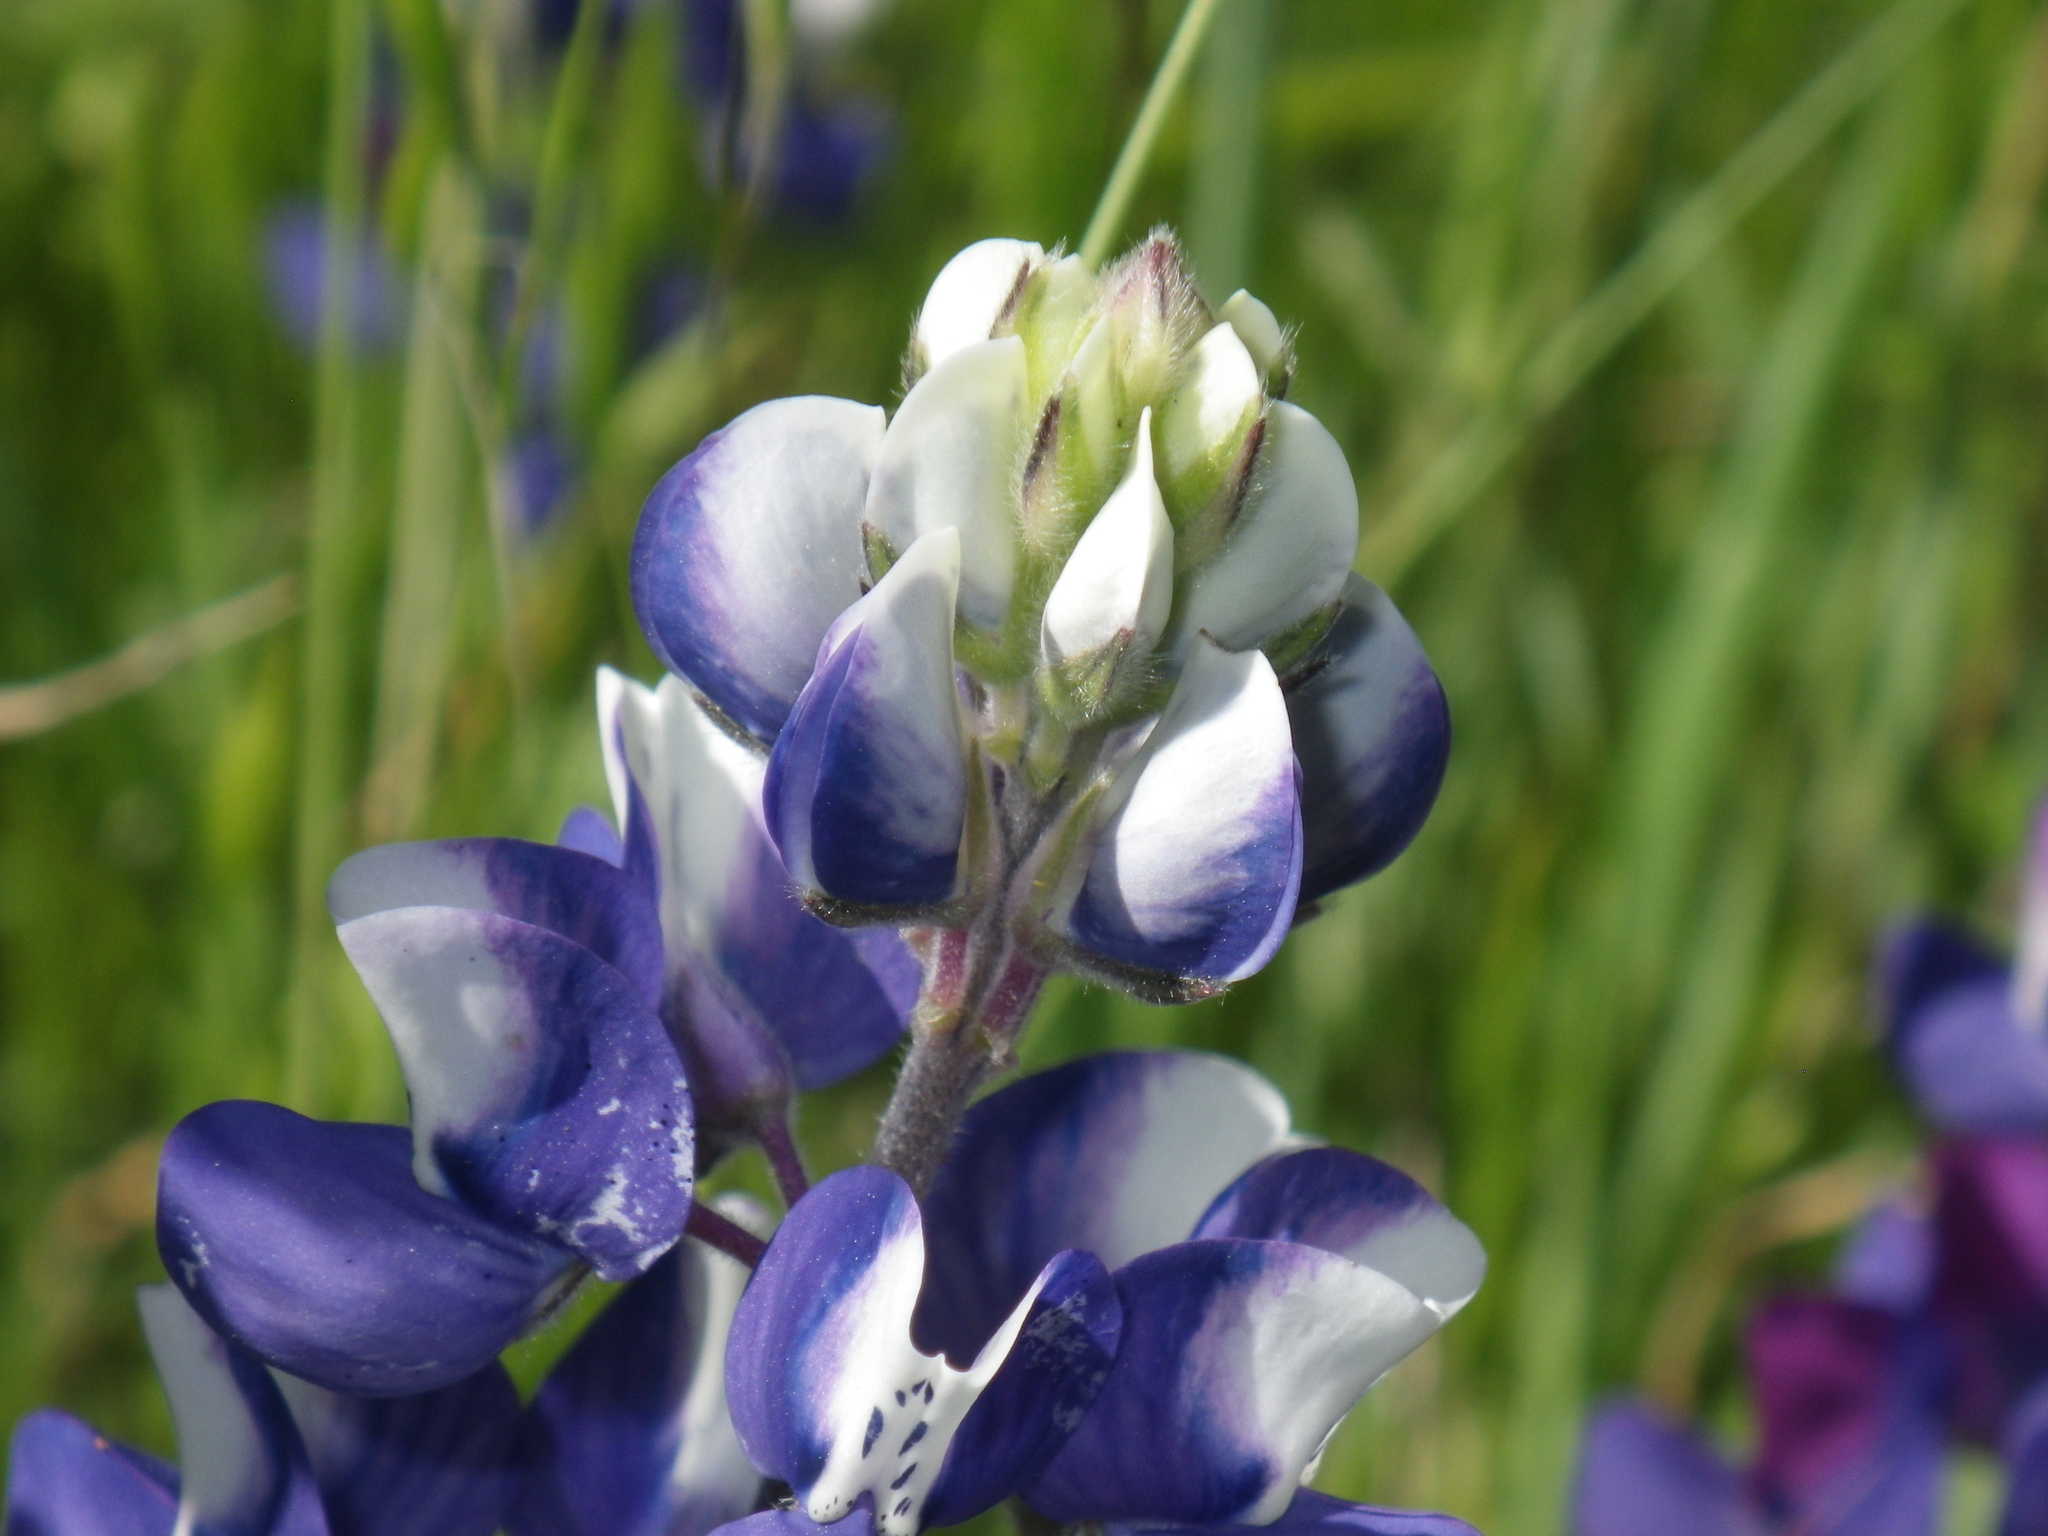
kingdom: Plantae
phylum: Tracheophyta
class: Magnoliopsida
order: Fabales
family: Fabaceae
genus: Lupinus
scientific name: Lupinus nanus
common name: Orean blue lupin
